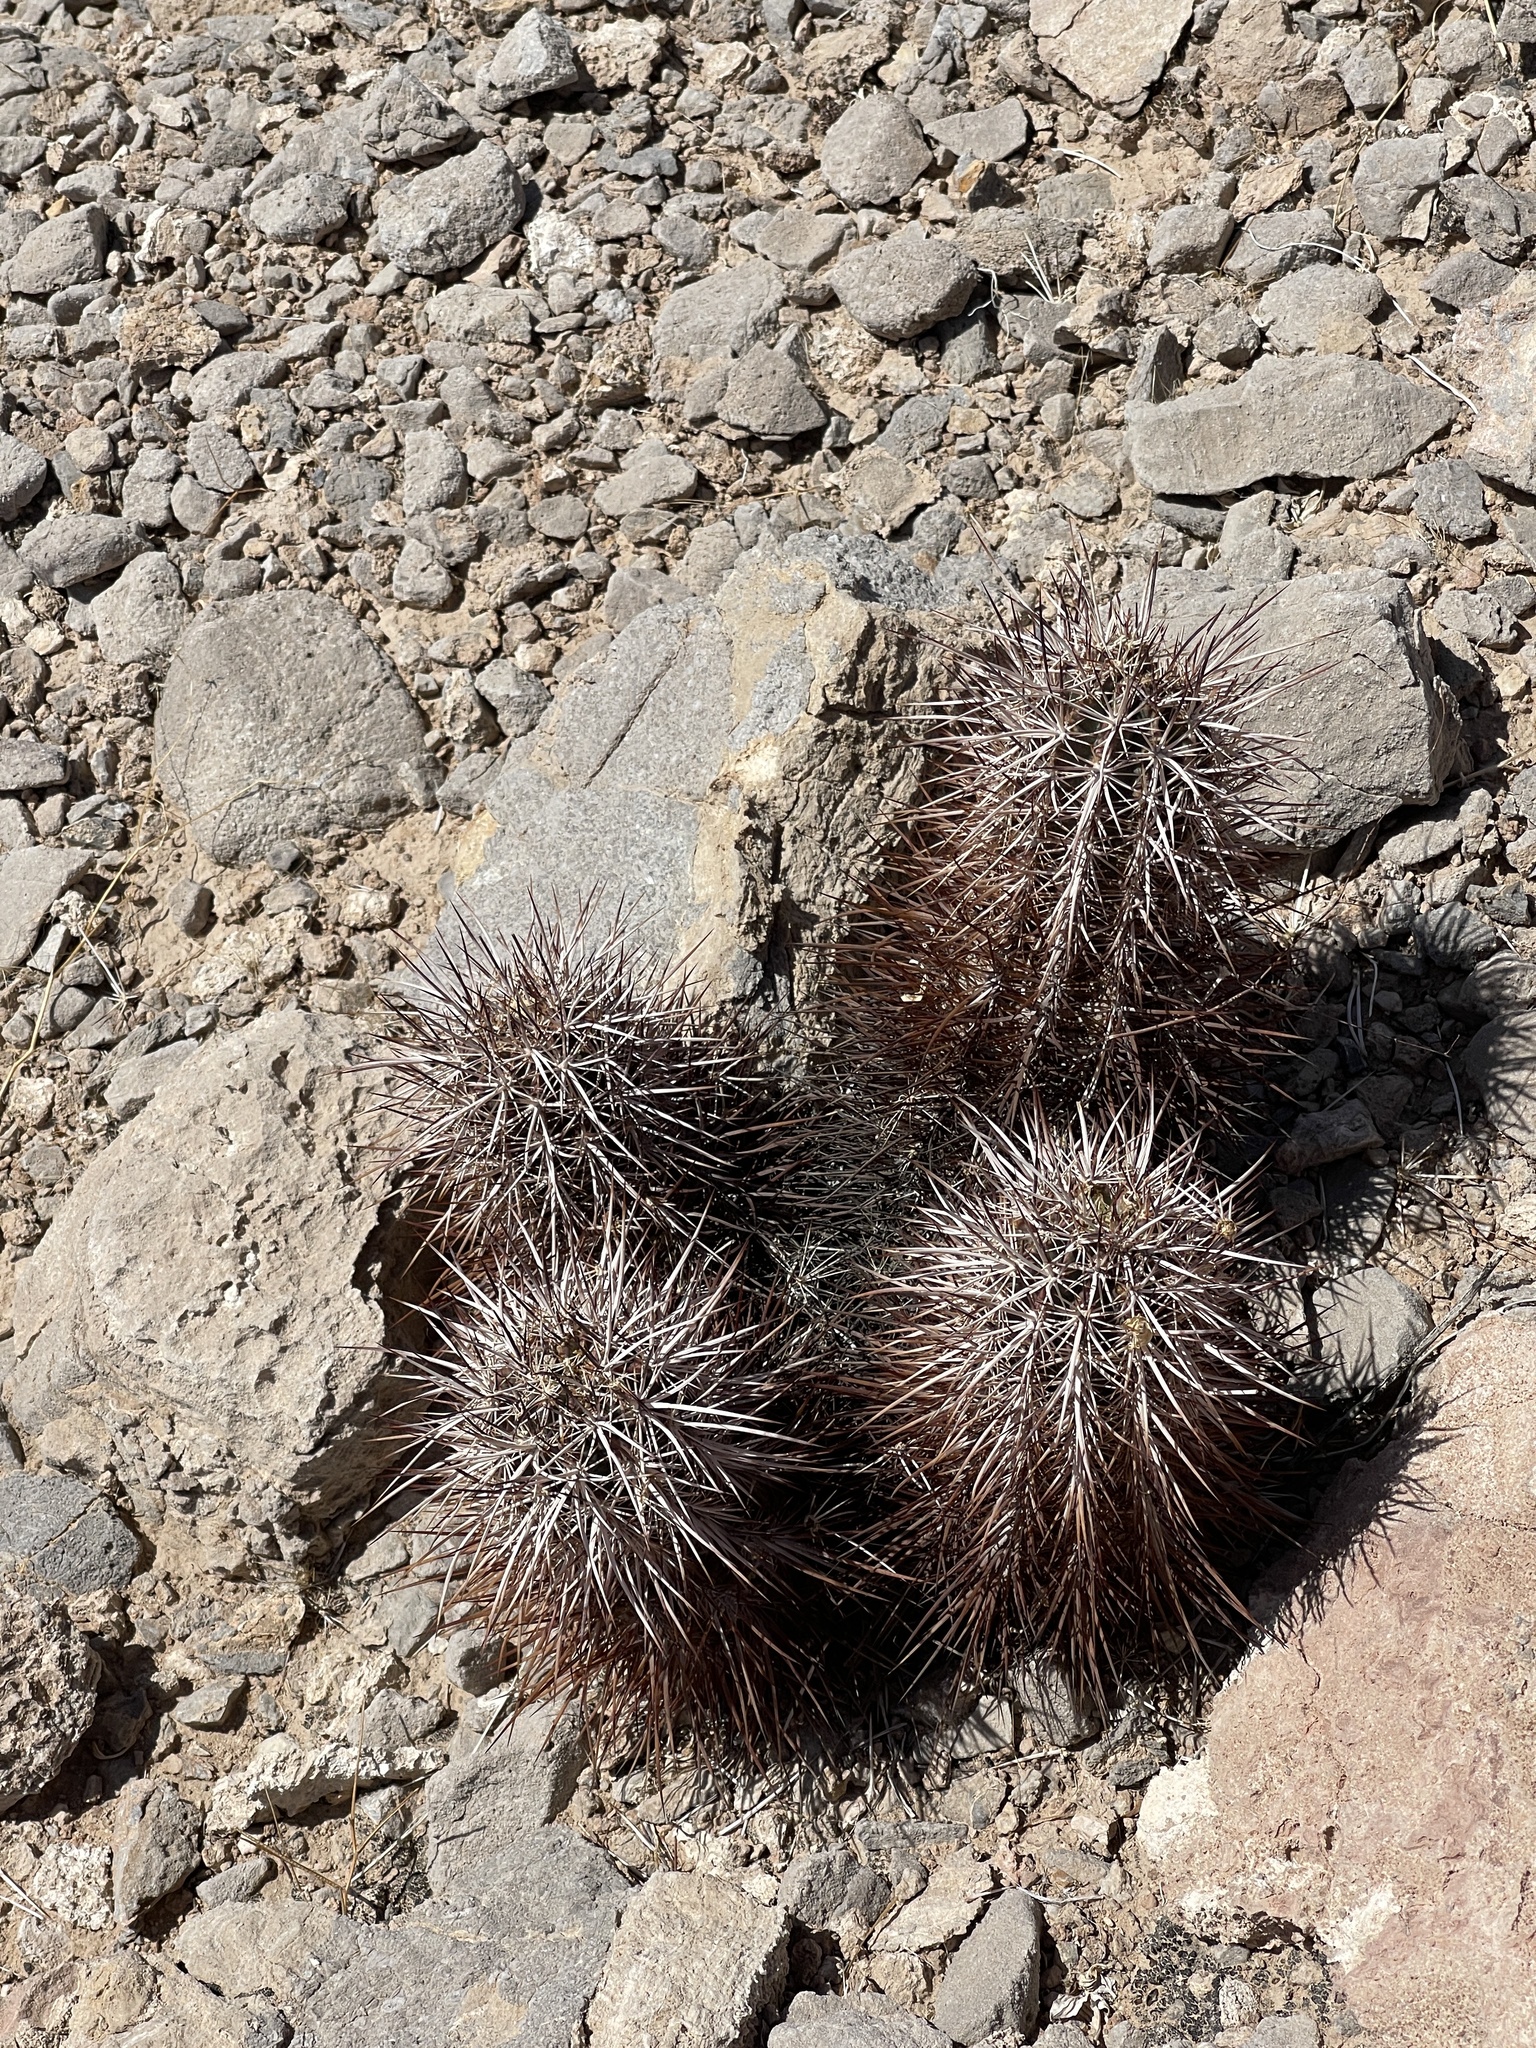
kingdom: Plantae
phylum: Tracheophyta
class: Magnoliopsida
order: Caryophyllales
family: Cactaceae
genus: Echinocereus
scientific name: Echinocereus engelmannii
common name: Engelmann's hedgehog cactus
